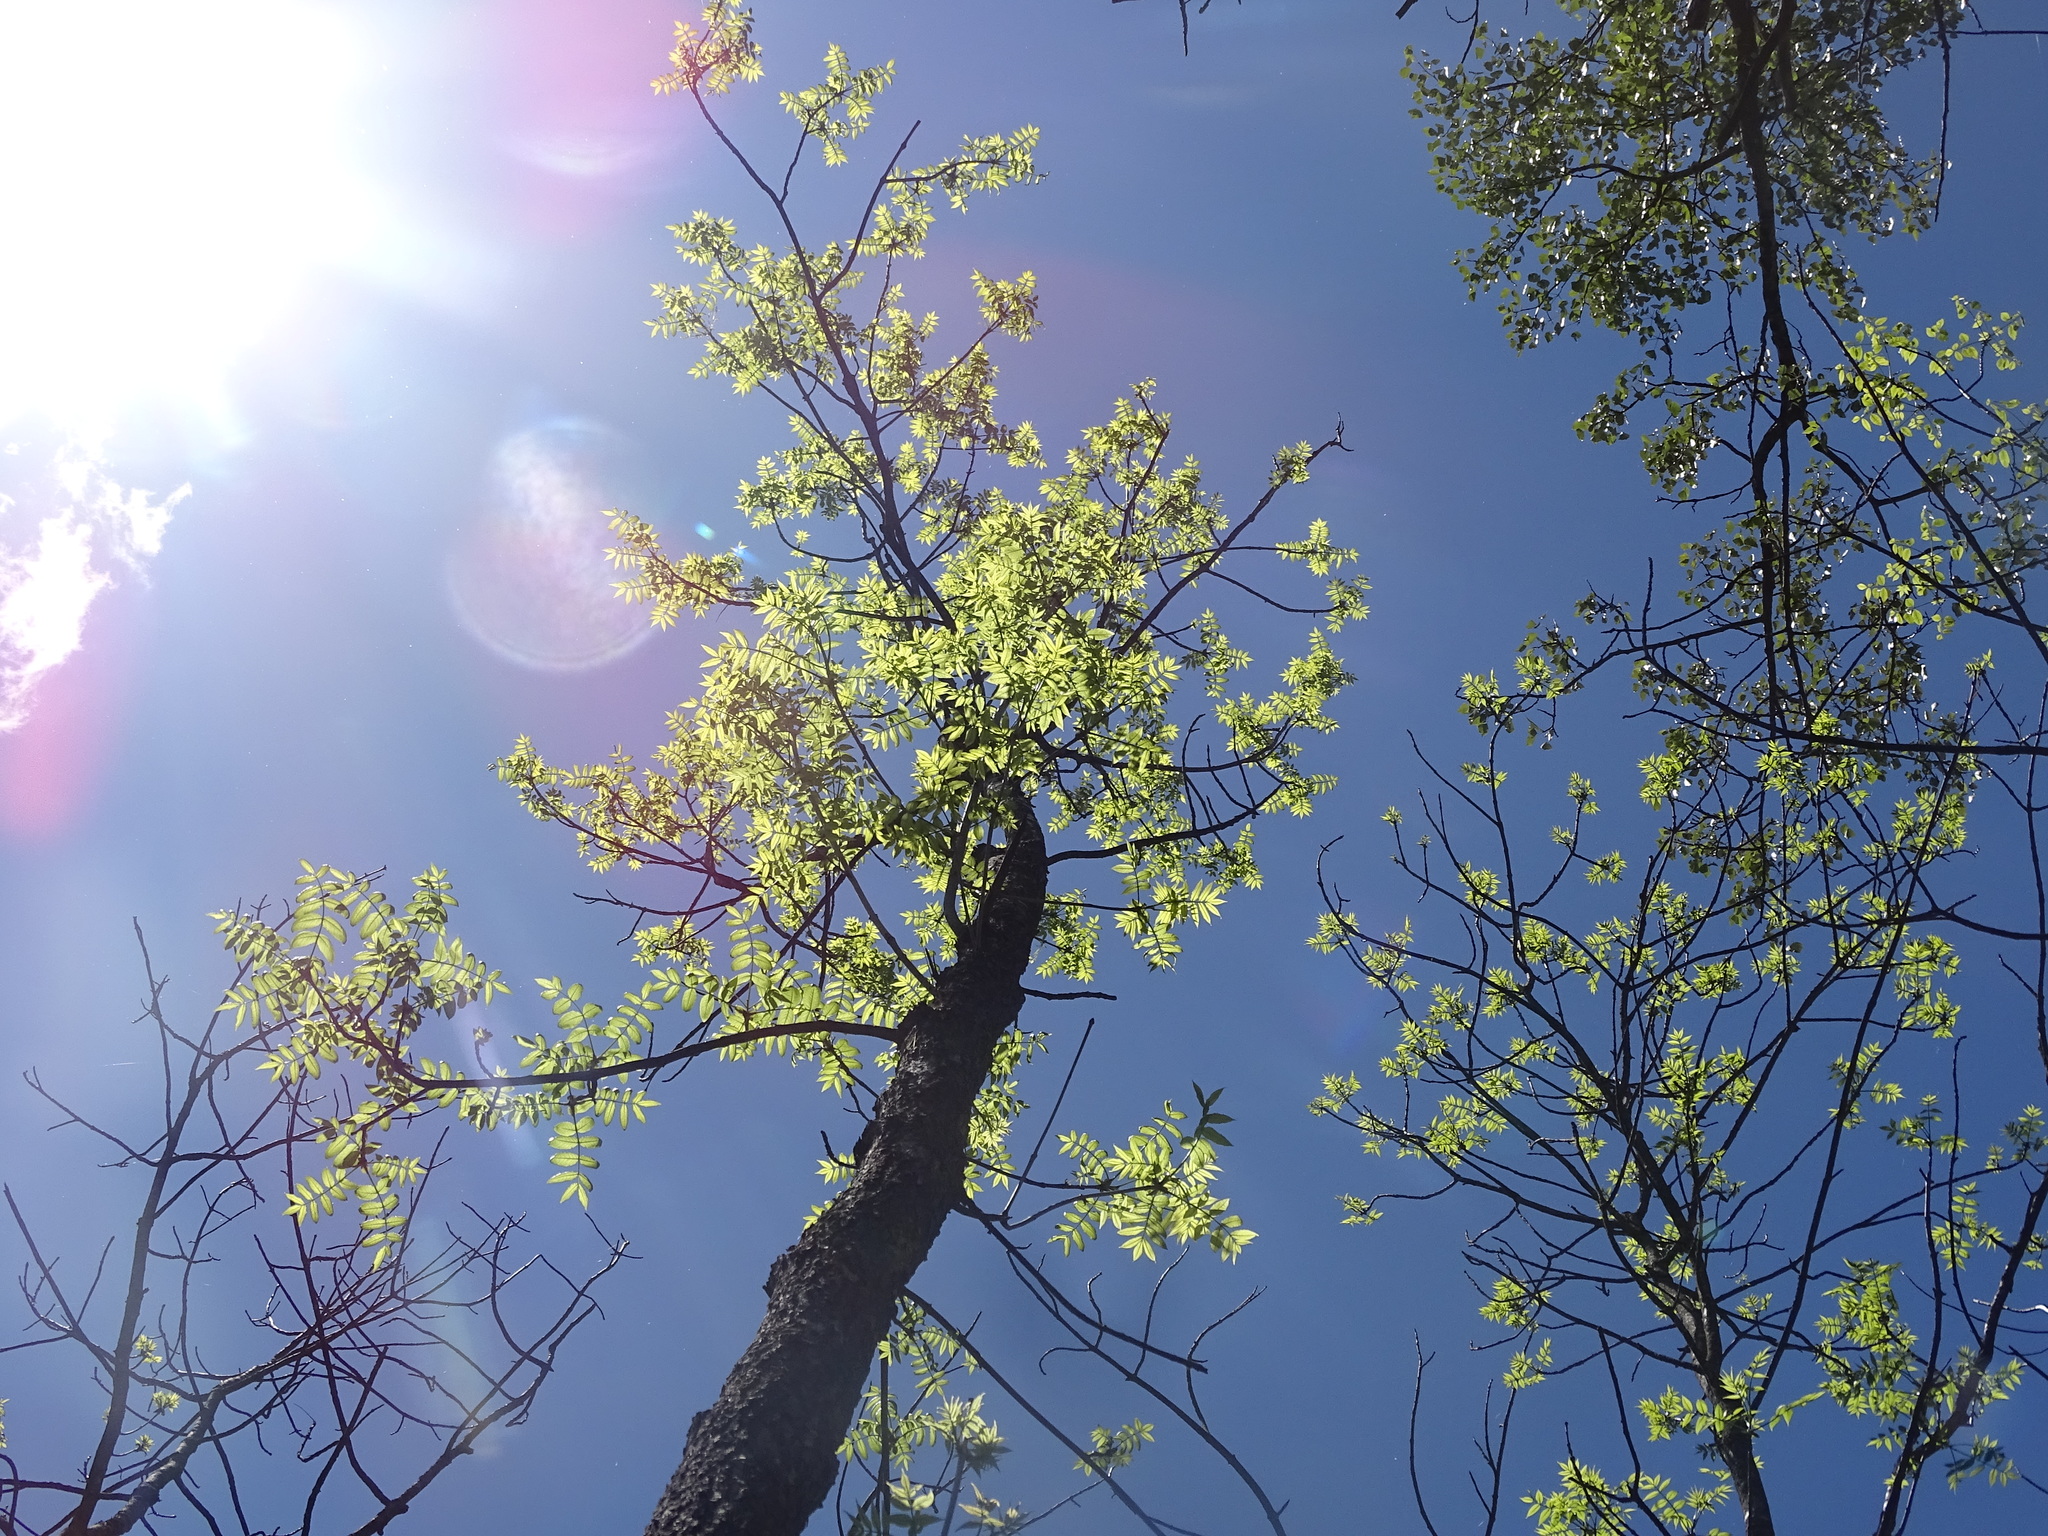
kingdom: Plantae
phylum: Tracheophyta
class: Magnoliopsida
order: Lamiales
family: Oleaceae
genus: Fraxinus
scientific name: Fraxinus nigra
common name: Black ash
